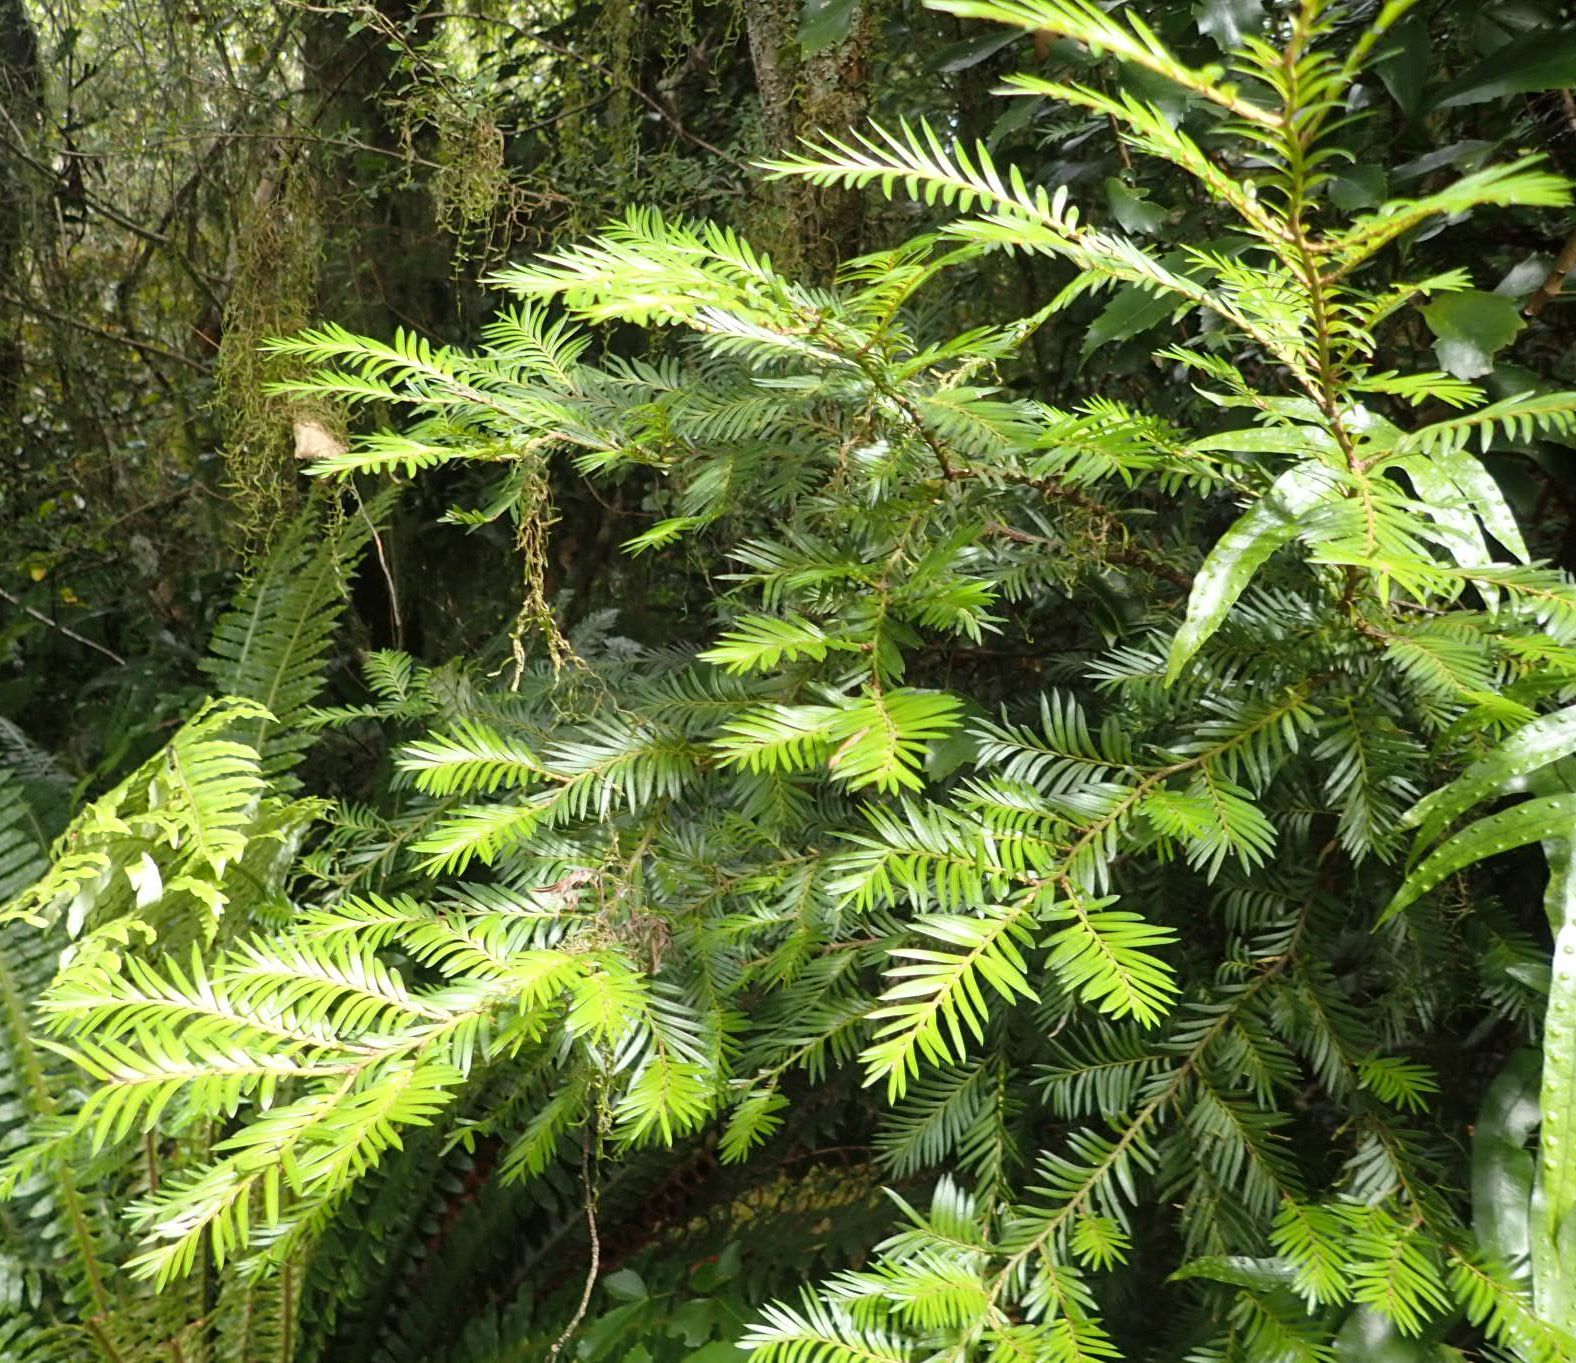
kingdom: Plantae
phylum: Tracheophyta
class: Pinopsida
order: Pinales
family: Podocarpaceae
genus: Prumnopitys
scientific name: Prumnopitys ferruginea
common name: Brown pine
